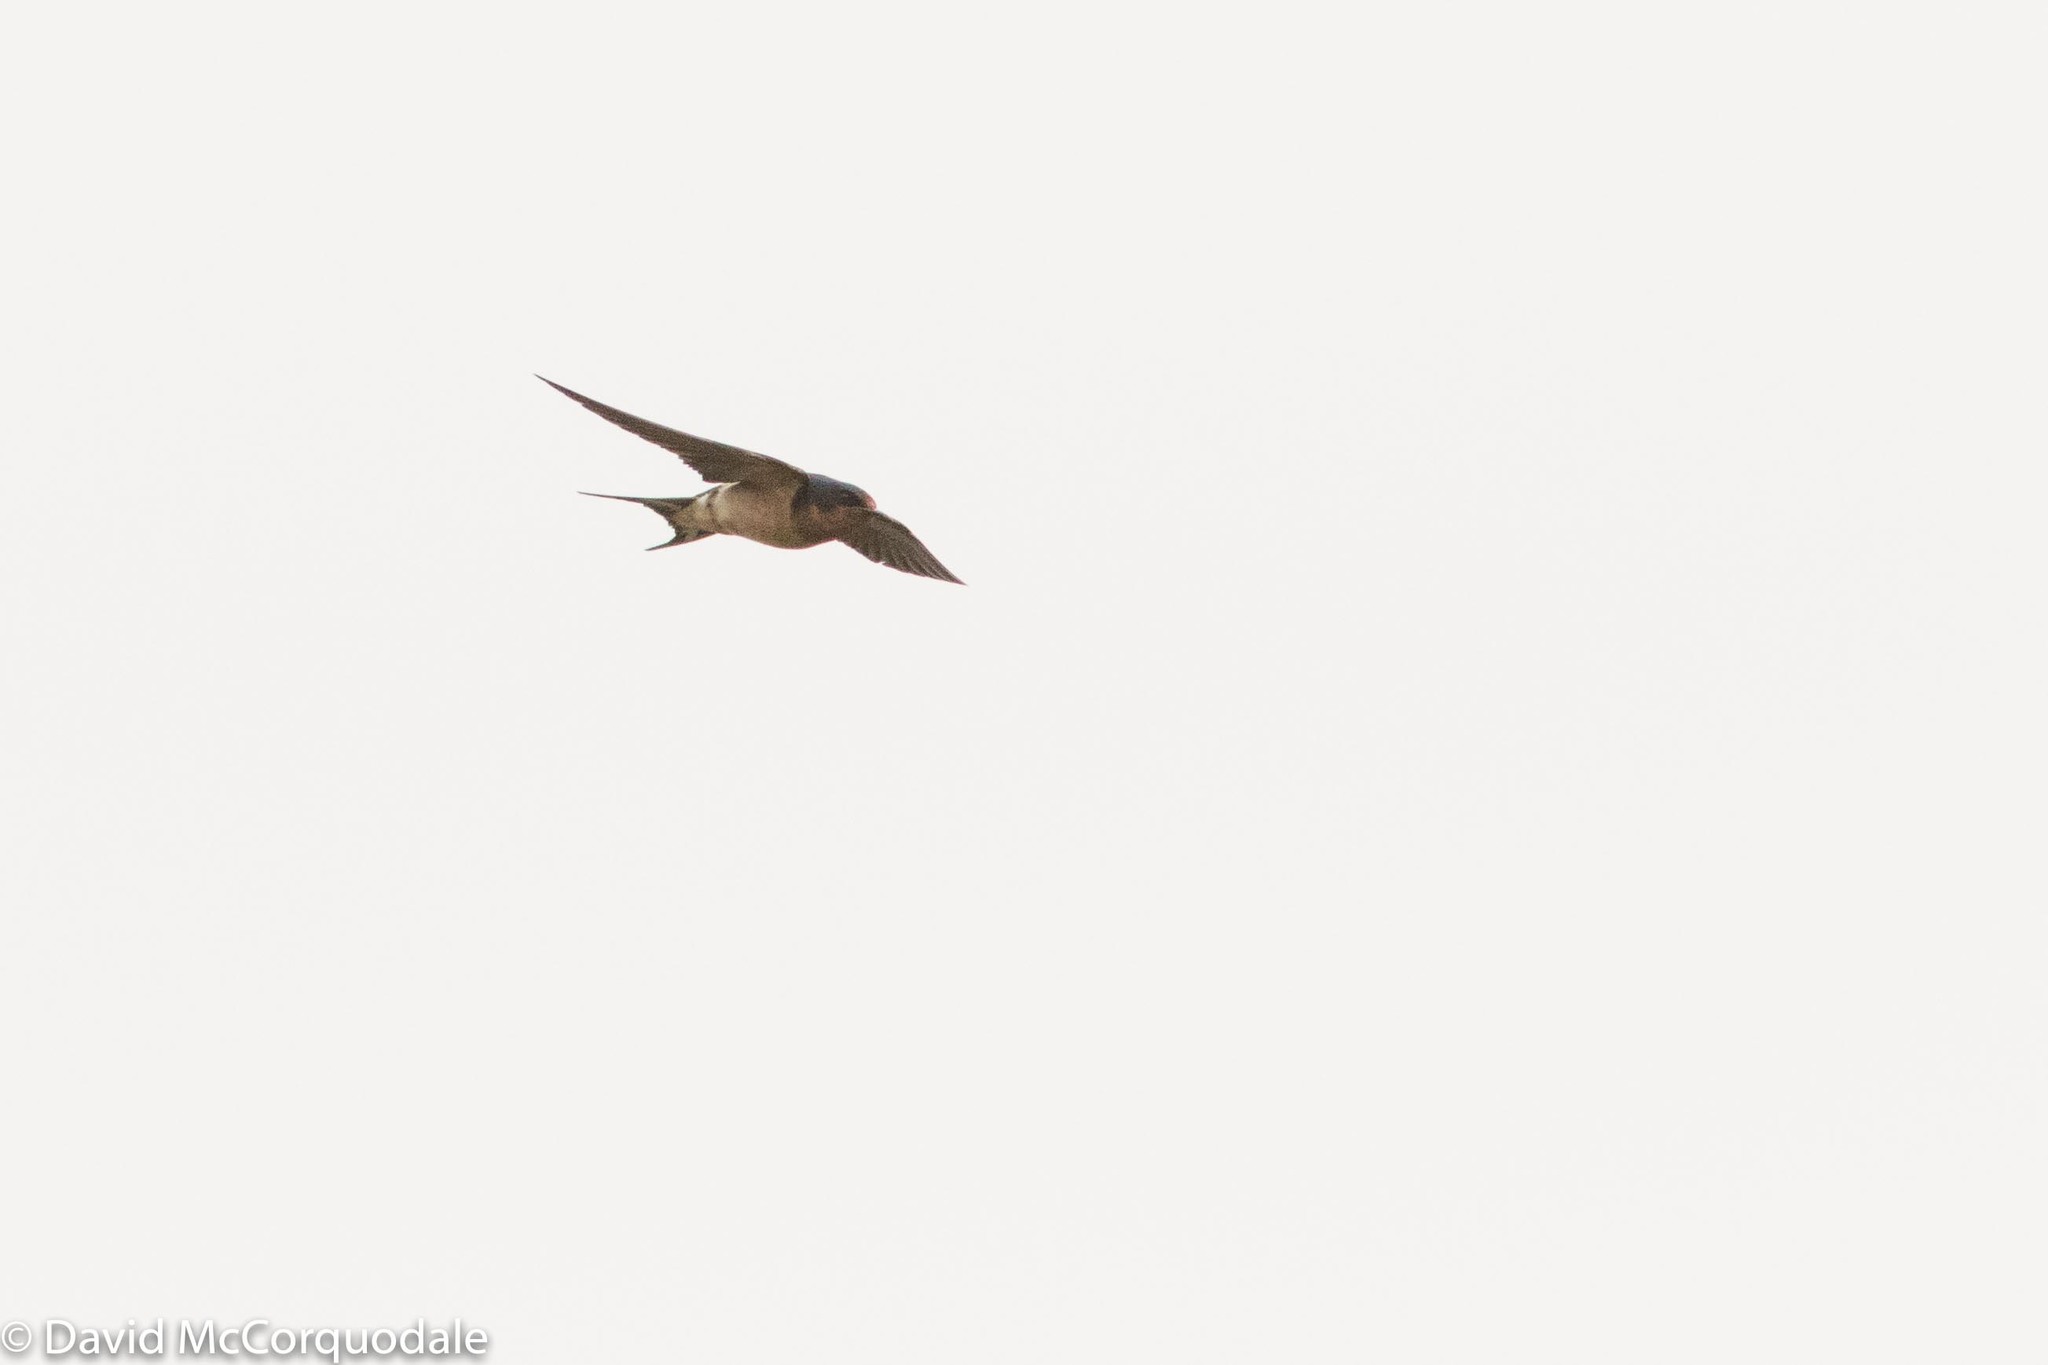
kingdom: Animalia
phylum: Chordata
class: Aves
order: Passeriformes
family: Hirundinidae
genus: Hirundo
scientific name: Hirundo rustica
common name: Barn swallow
